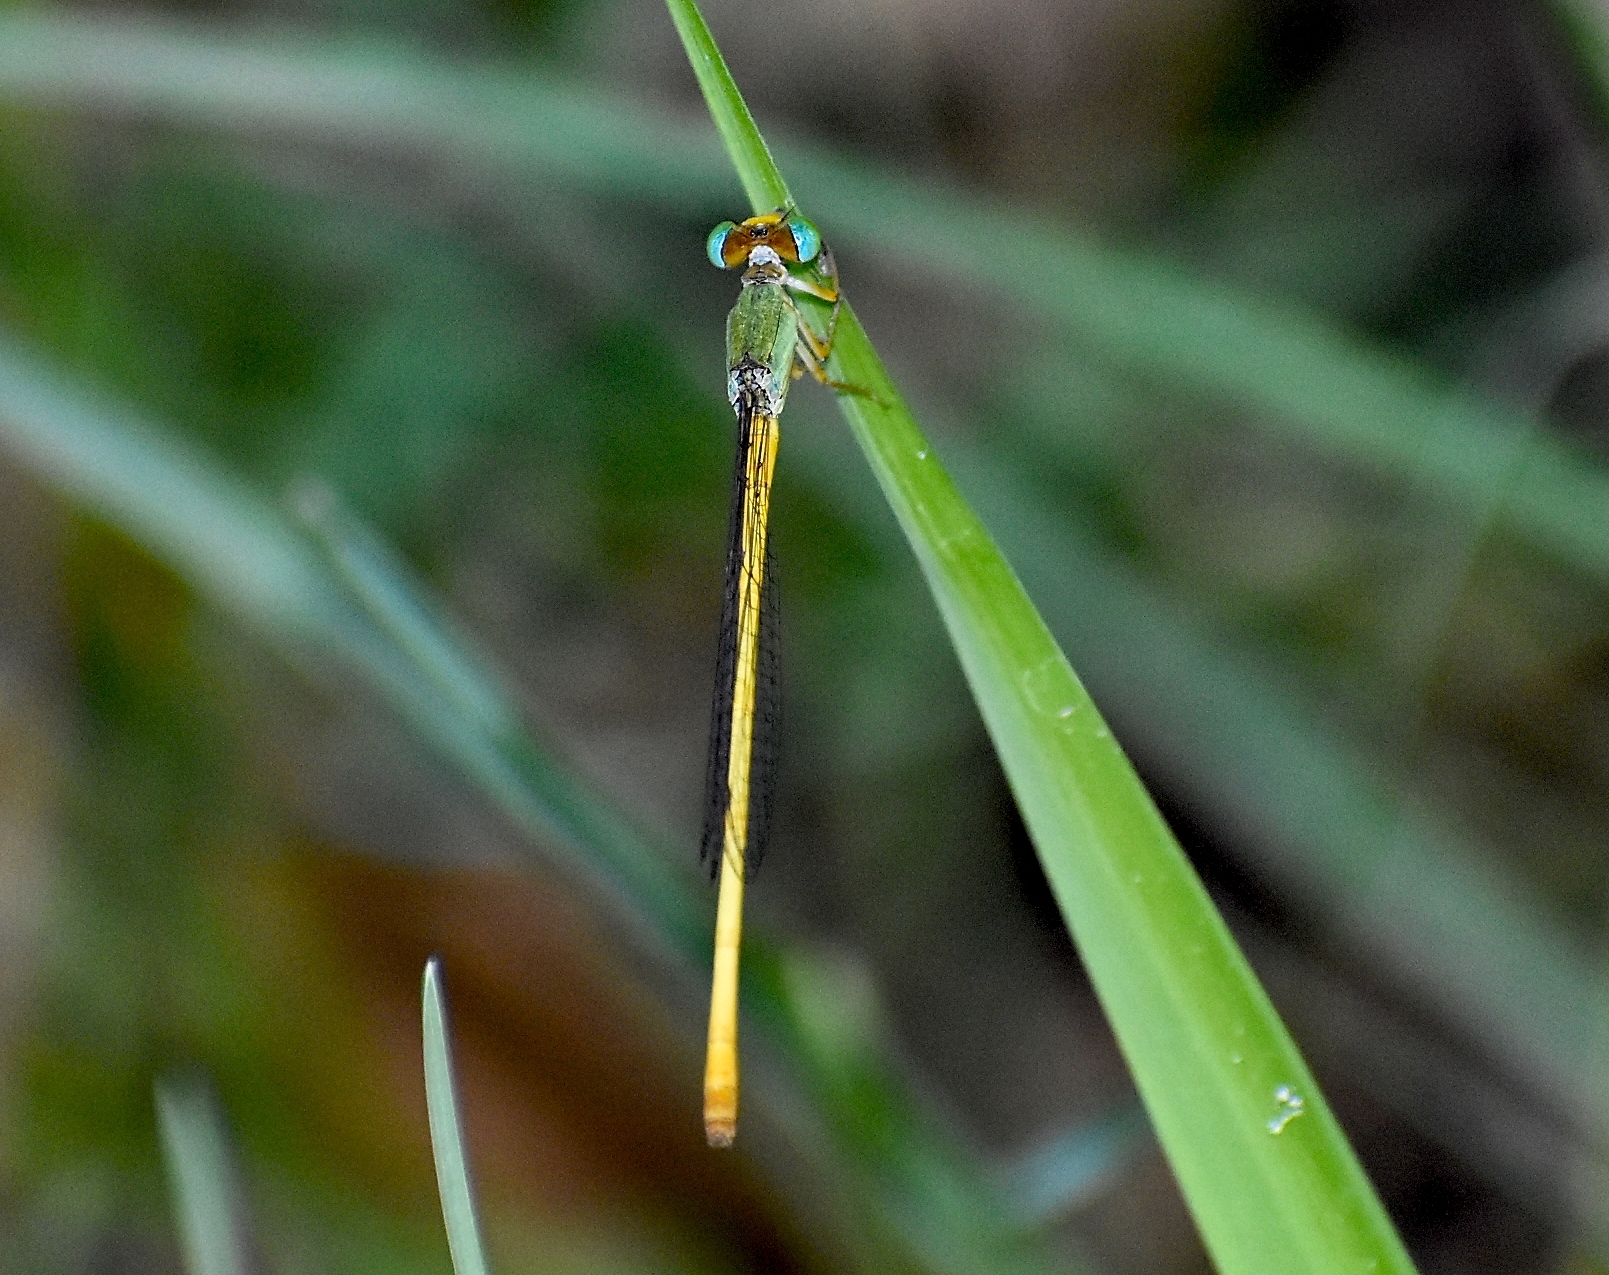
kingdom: Animalia
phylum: Arthropoda
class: Insecta
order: Odonata
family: Coenagrionidae
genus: Ceriagrion
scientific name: Ceriagrion coromandelianum
